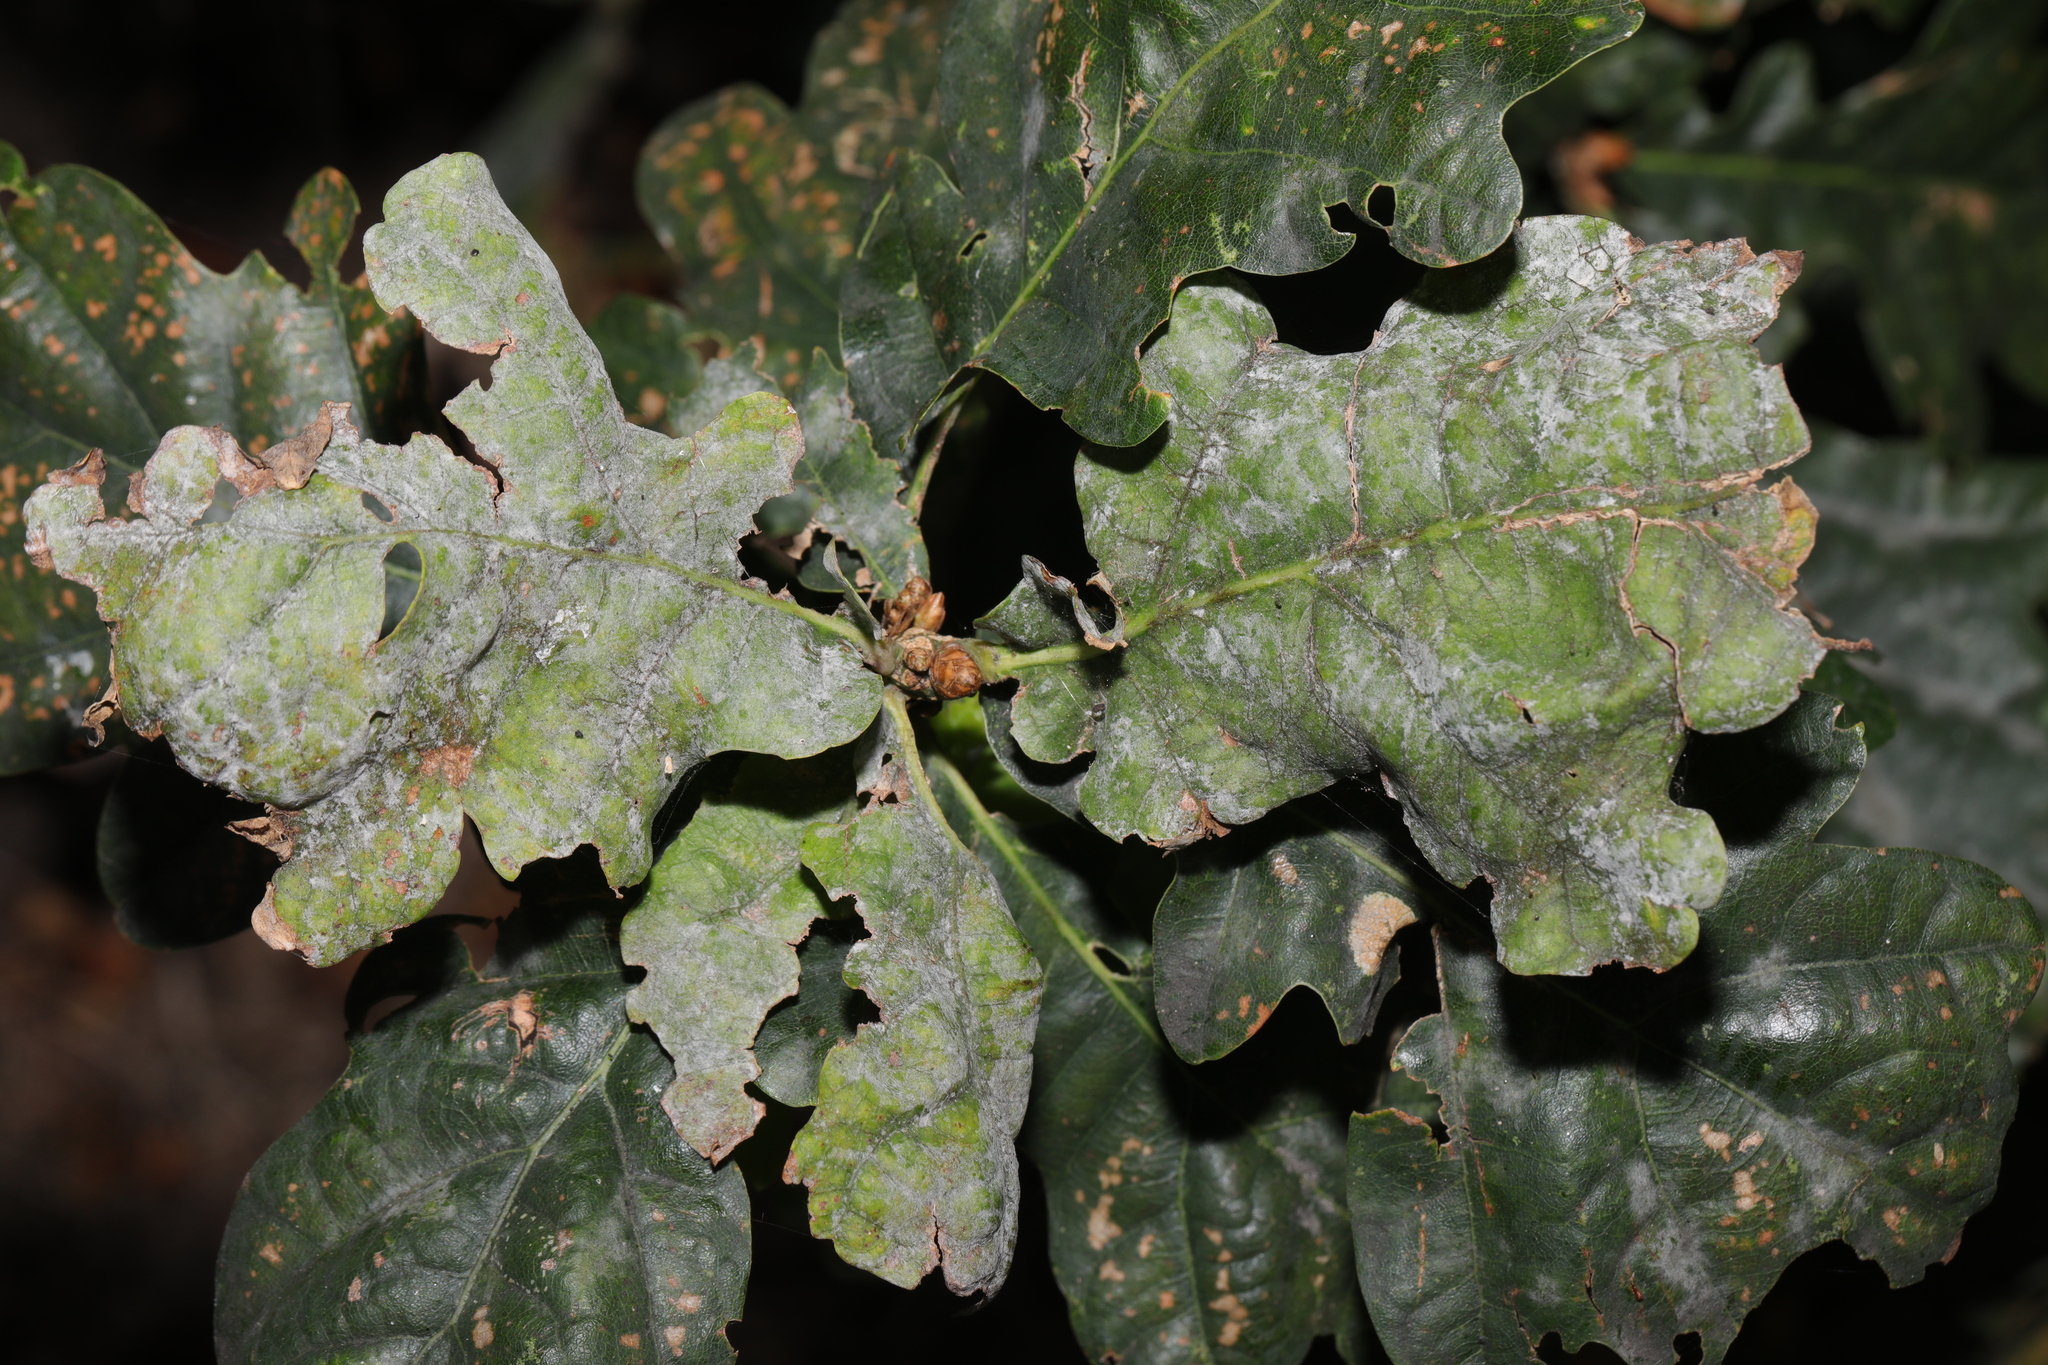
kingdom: Fungi
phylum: Ascomycota
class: Leotiomycetes
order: Helotiales
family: Erysiphaceae
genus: Erysiphe
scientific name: Erysiphe alphitoides
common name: Oak mildew
